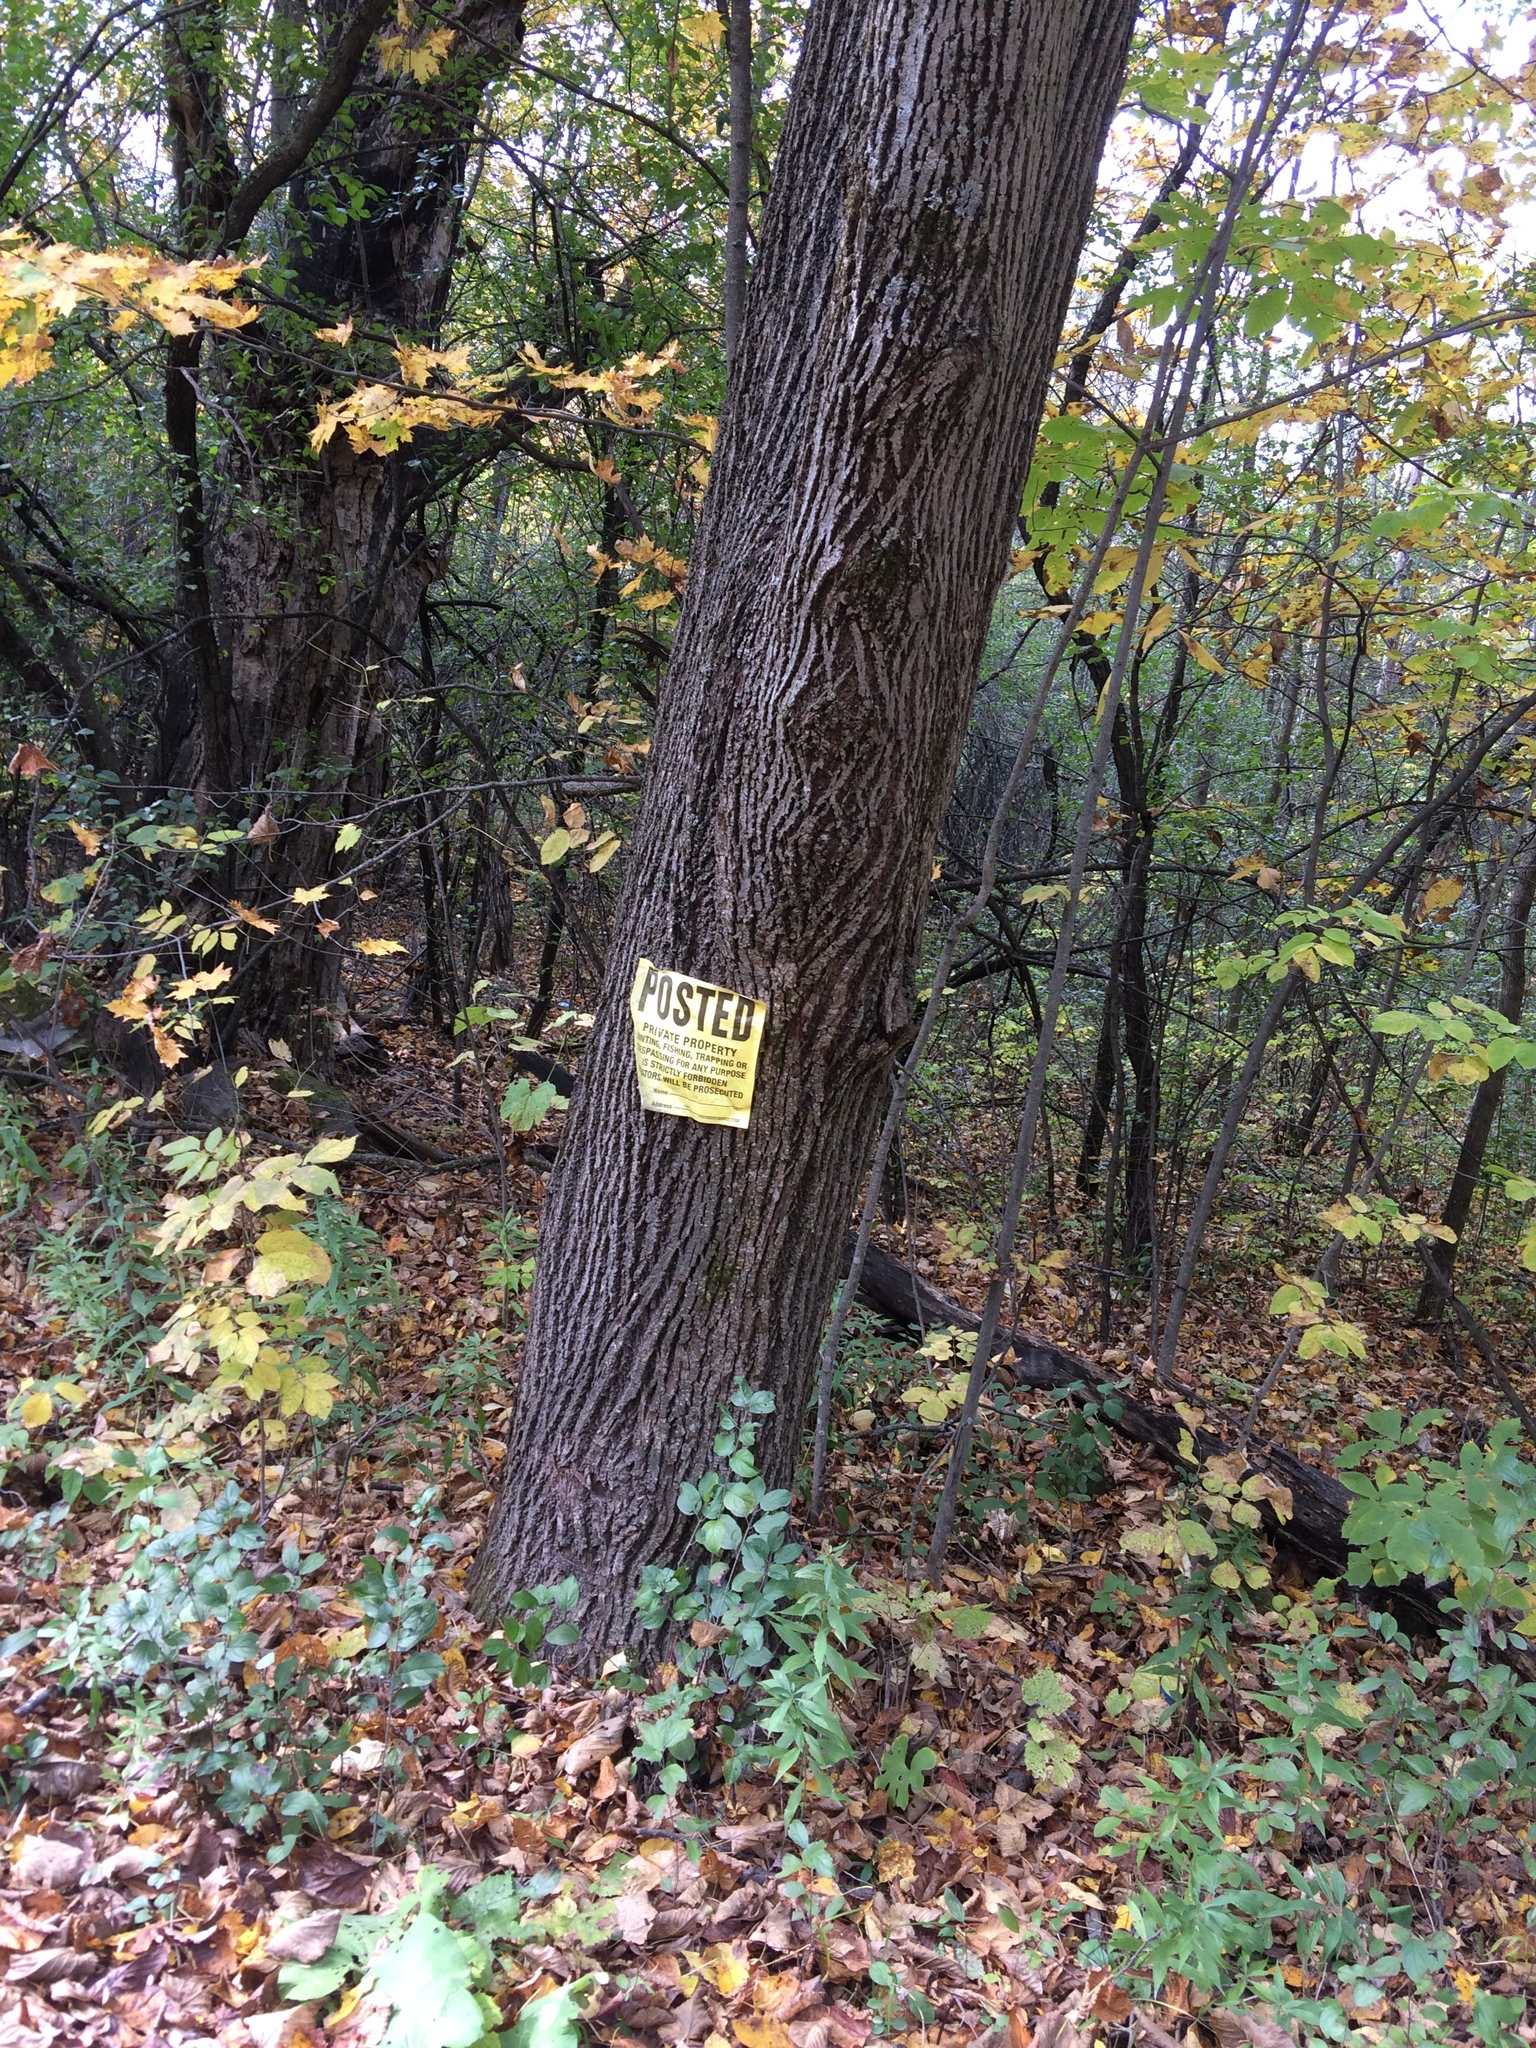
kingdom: Plantae
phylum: Tracheophyta
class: Magnoliopsida
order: Malvales
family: Malvaceae
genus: Tilia
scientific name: Tilia americana
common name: Basswood
